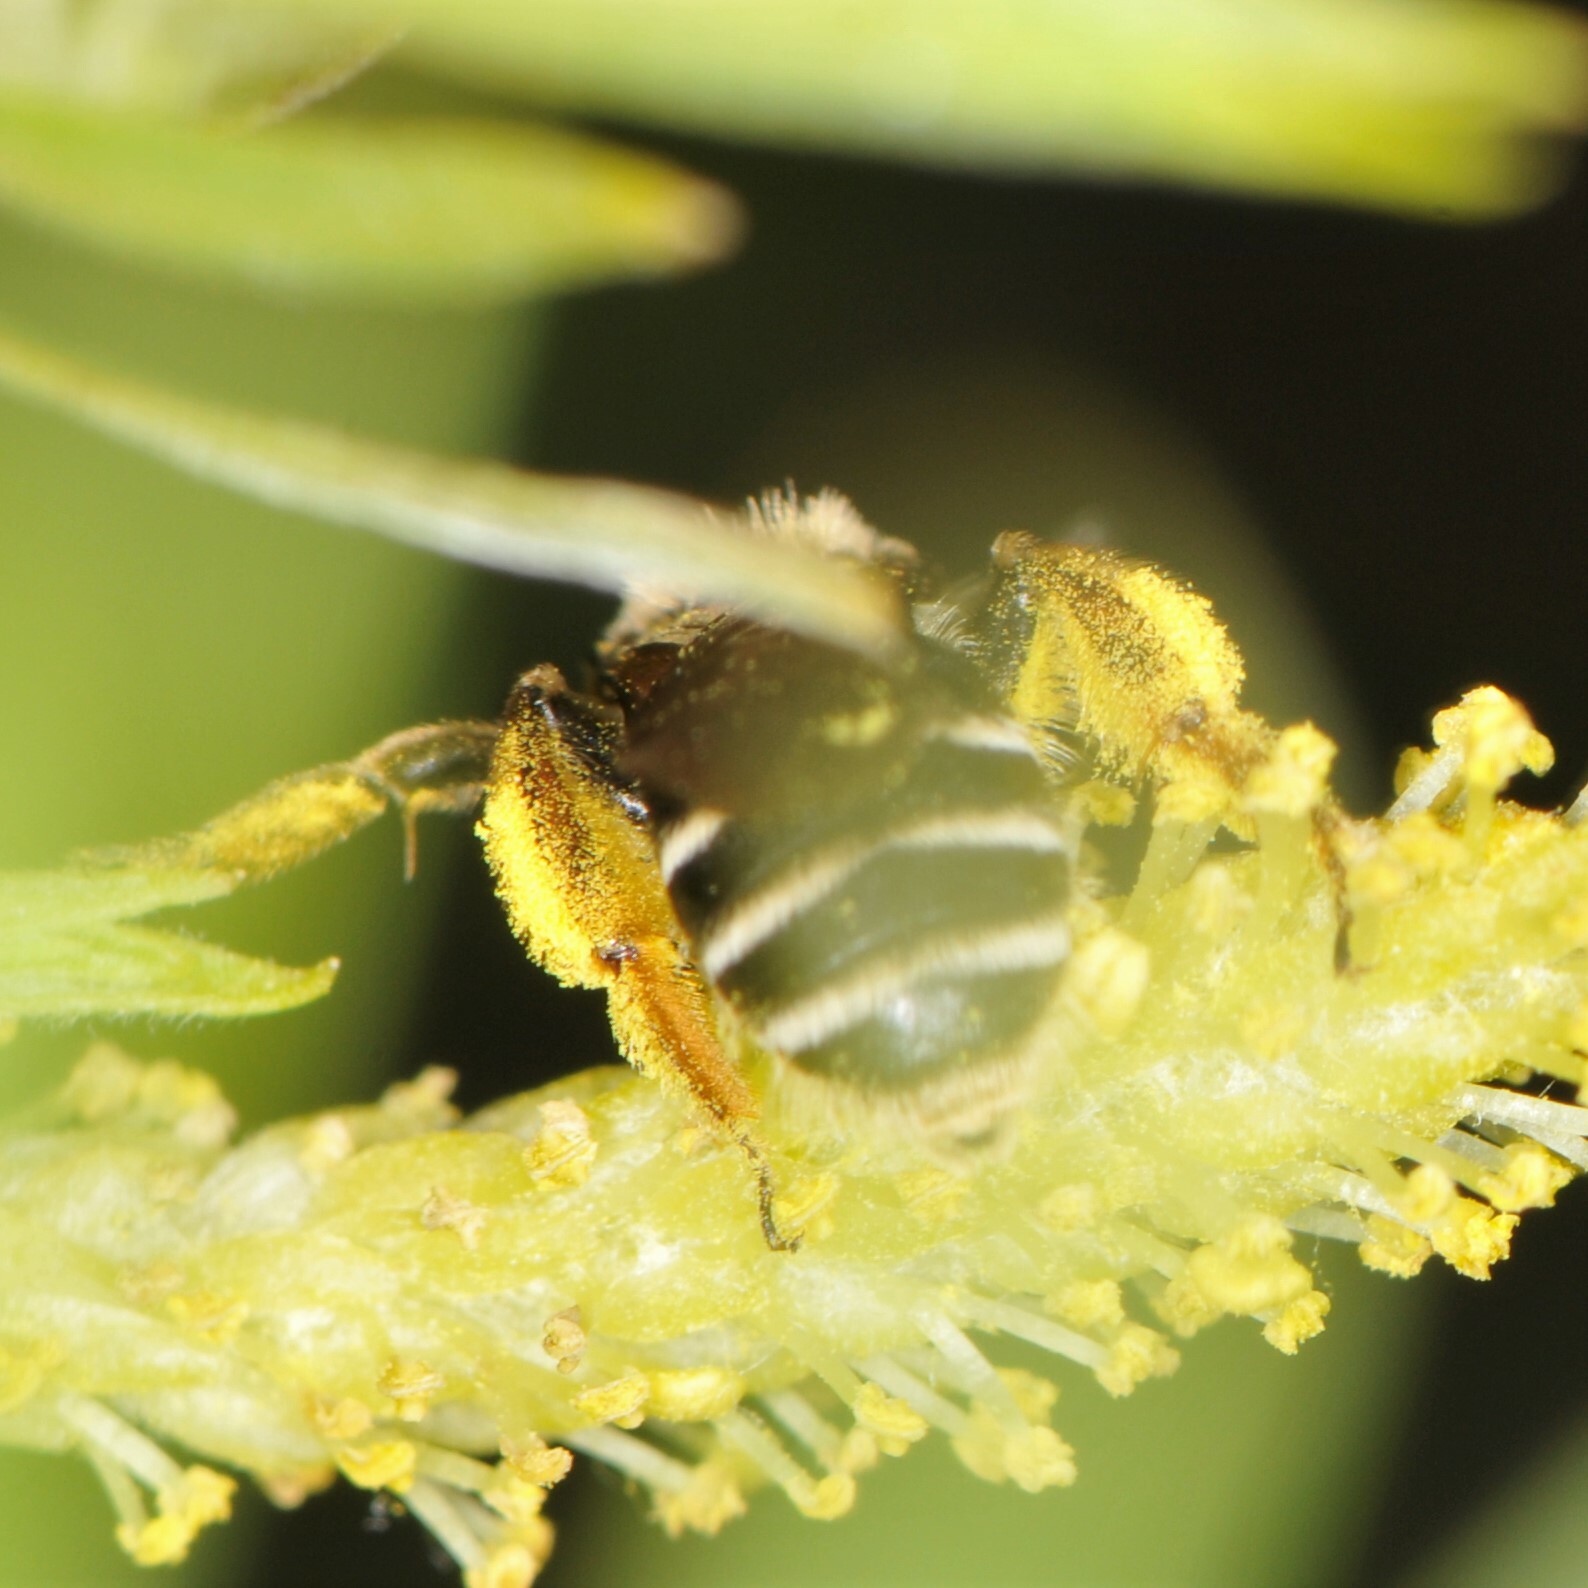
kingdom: Animalia
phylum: Arthropoda
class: Insecta
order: Hymenoptera
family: Andrenidae
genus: Andrena
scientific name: Andrena
